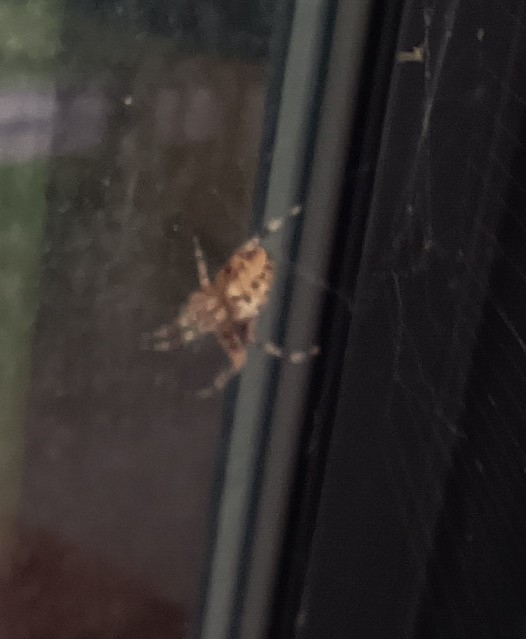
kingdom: Animalia
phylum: Arthropoda
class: Arachnida
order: Araneae
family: Araneidae
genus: Araneus
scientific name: Araneus diadematus
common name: Cross orbweaver
